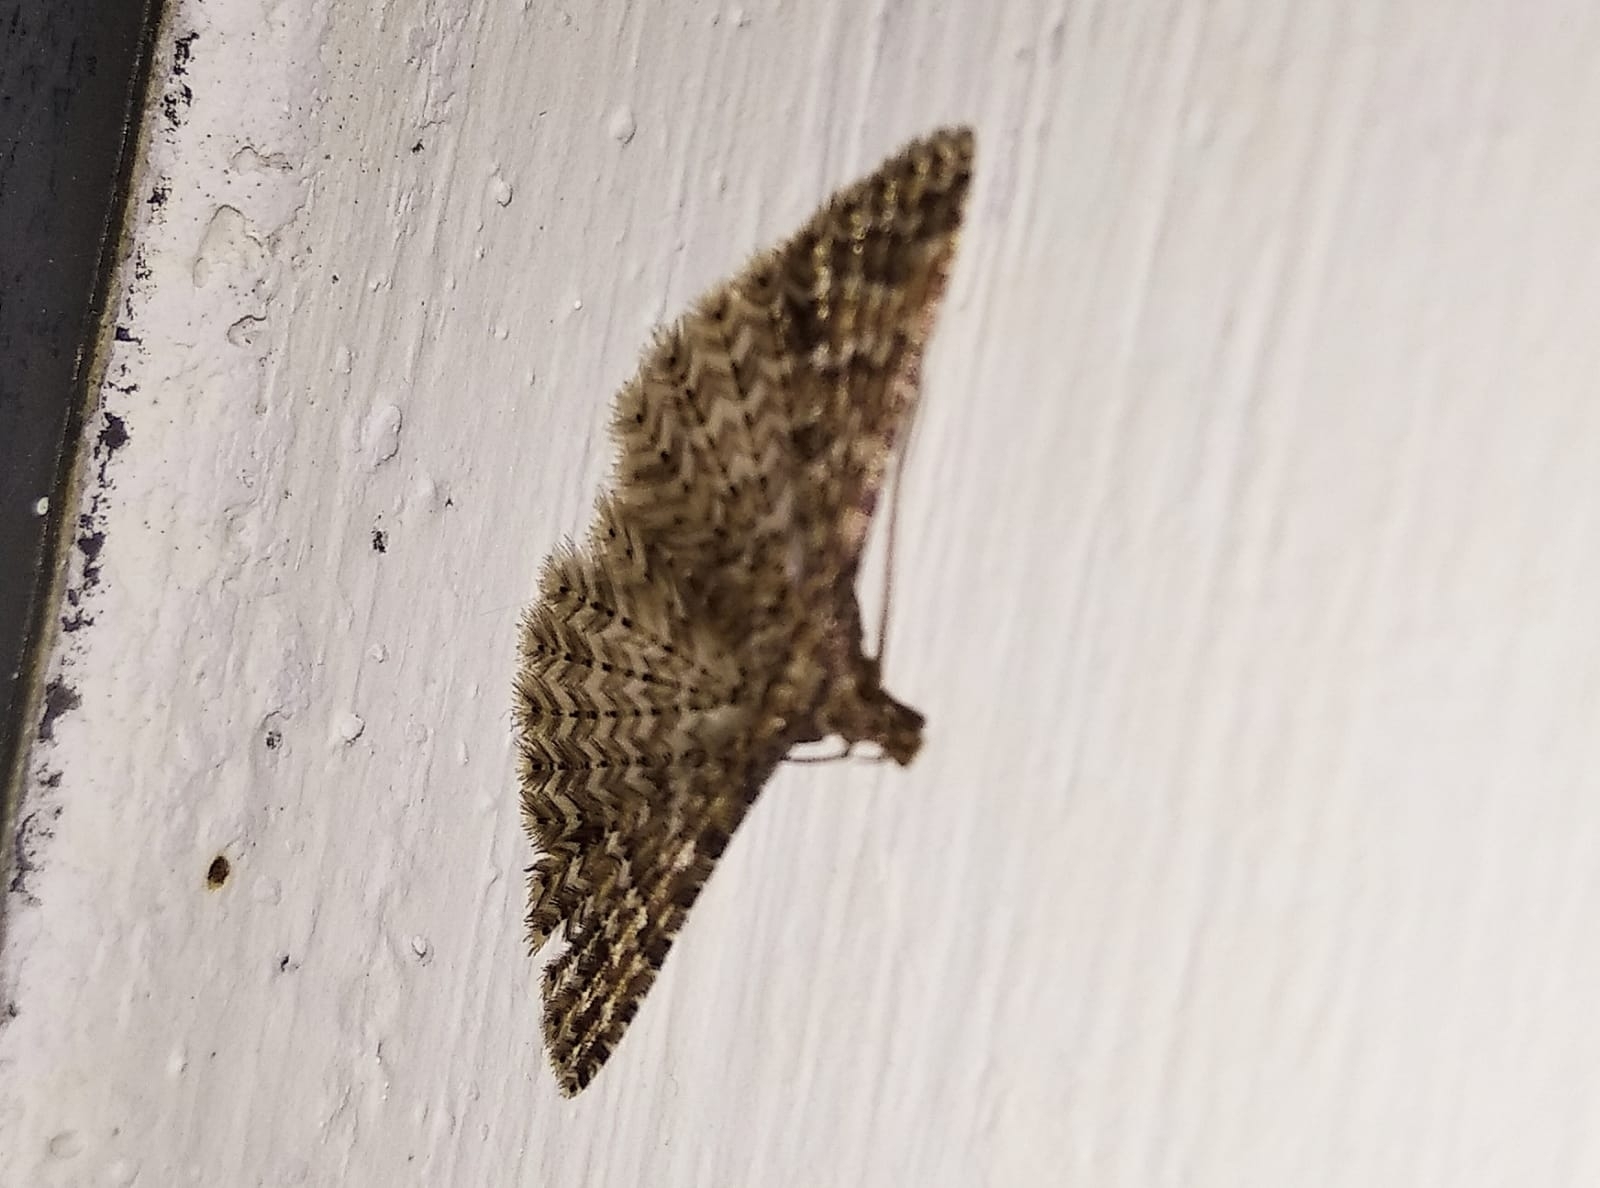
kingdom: Animalia
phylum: Arthropoda
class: Insecta
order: Lepidoptera
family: Alucitidae
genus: Alucita
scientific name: Alucita
